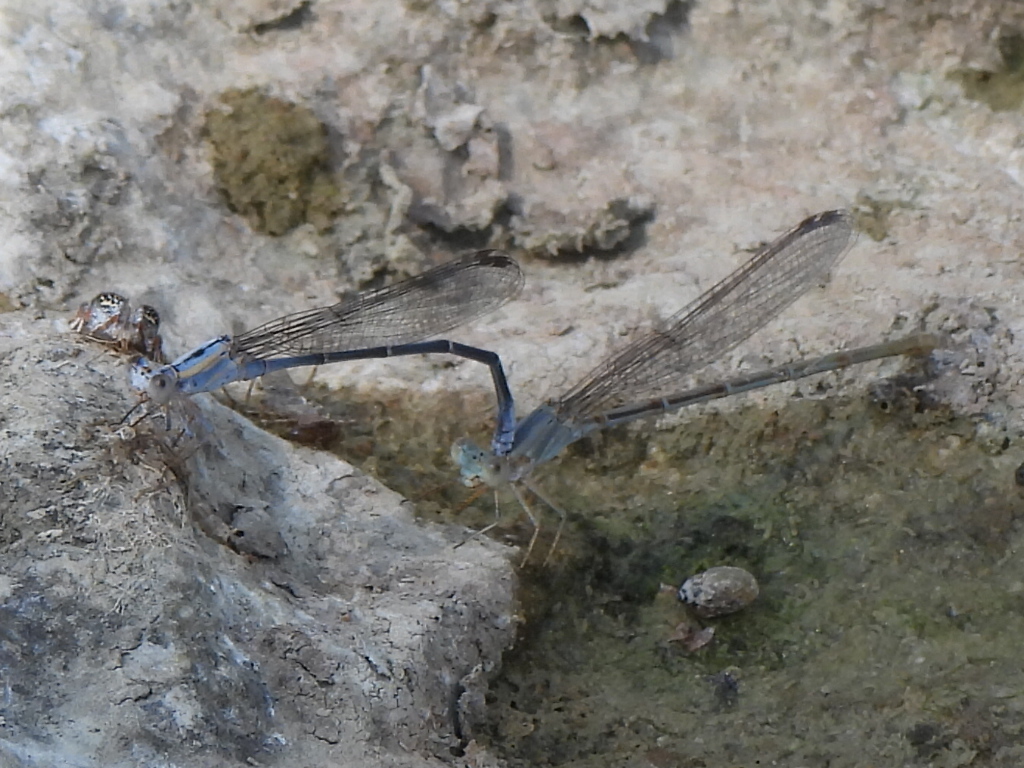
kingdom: Animalia
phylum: Arthropoda
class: Insecta
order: Odonata
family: Coenagrionidae
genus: Argia
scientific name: Argia moesta
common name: Powdered dancer
